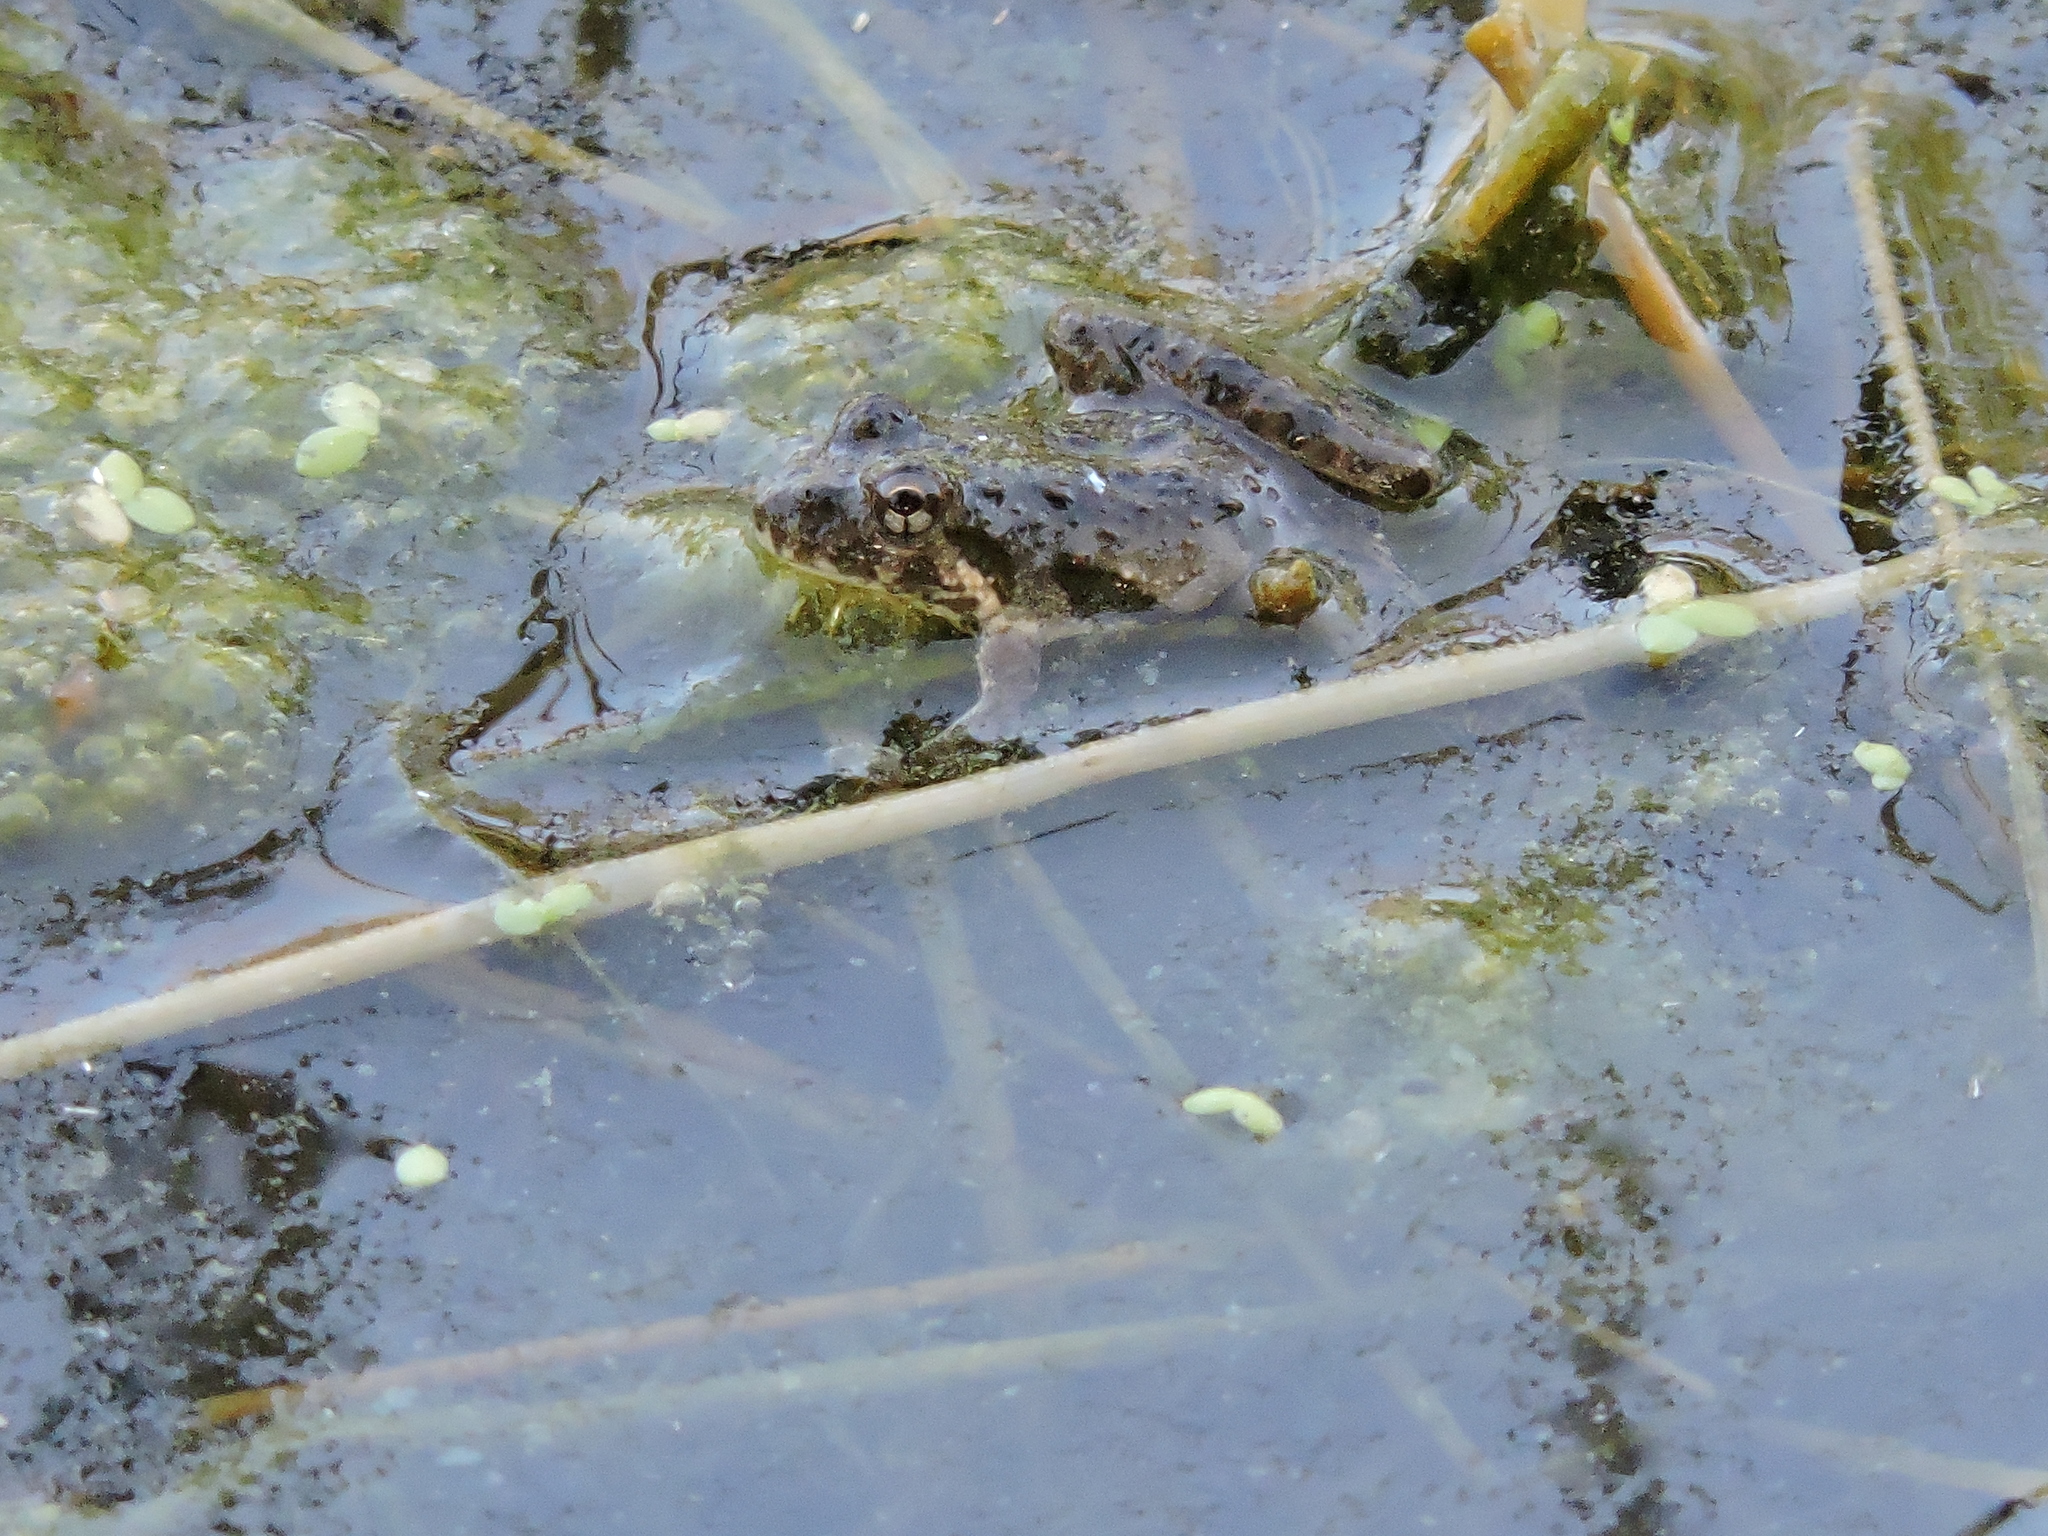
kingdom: Animalia
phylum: Chordata
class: Amphibia
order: Anura
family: Hylidae
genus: Acris
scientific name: Acris blanchardi
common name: Blanchard's cricket frog
